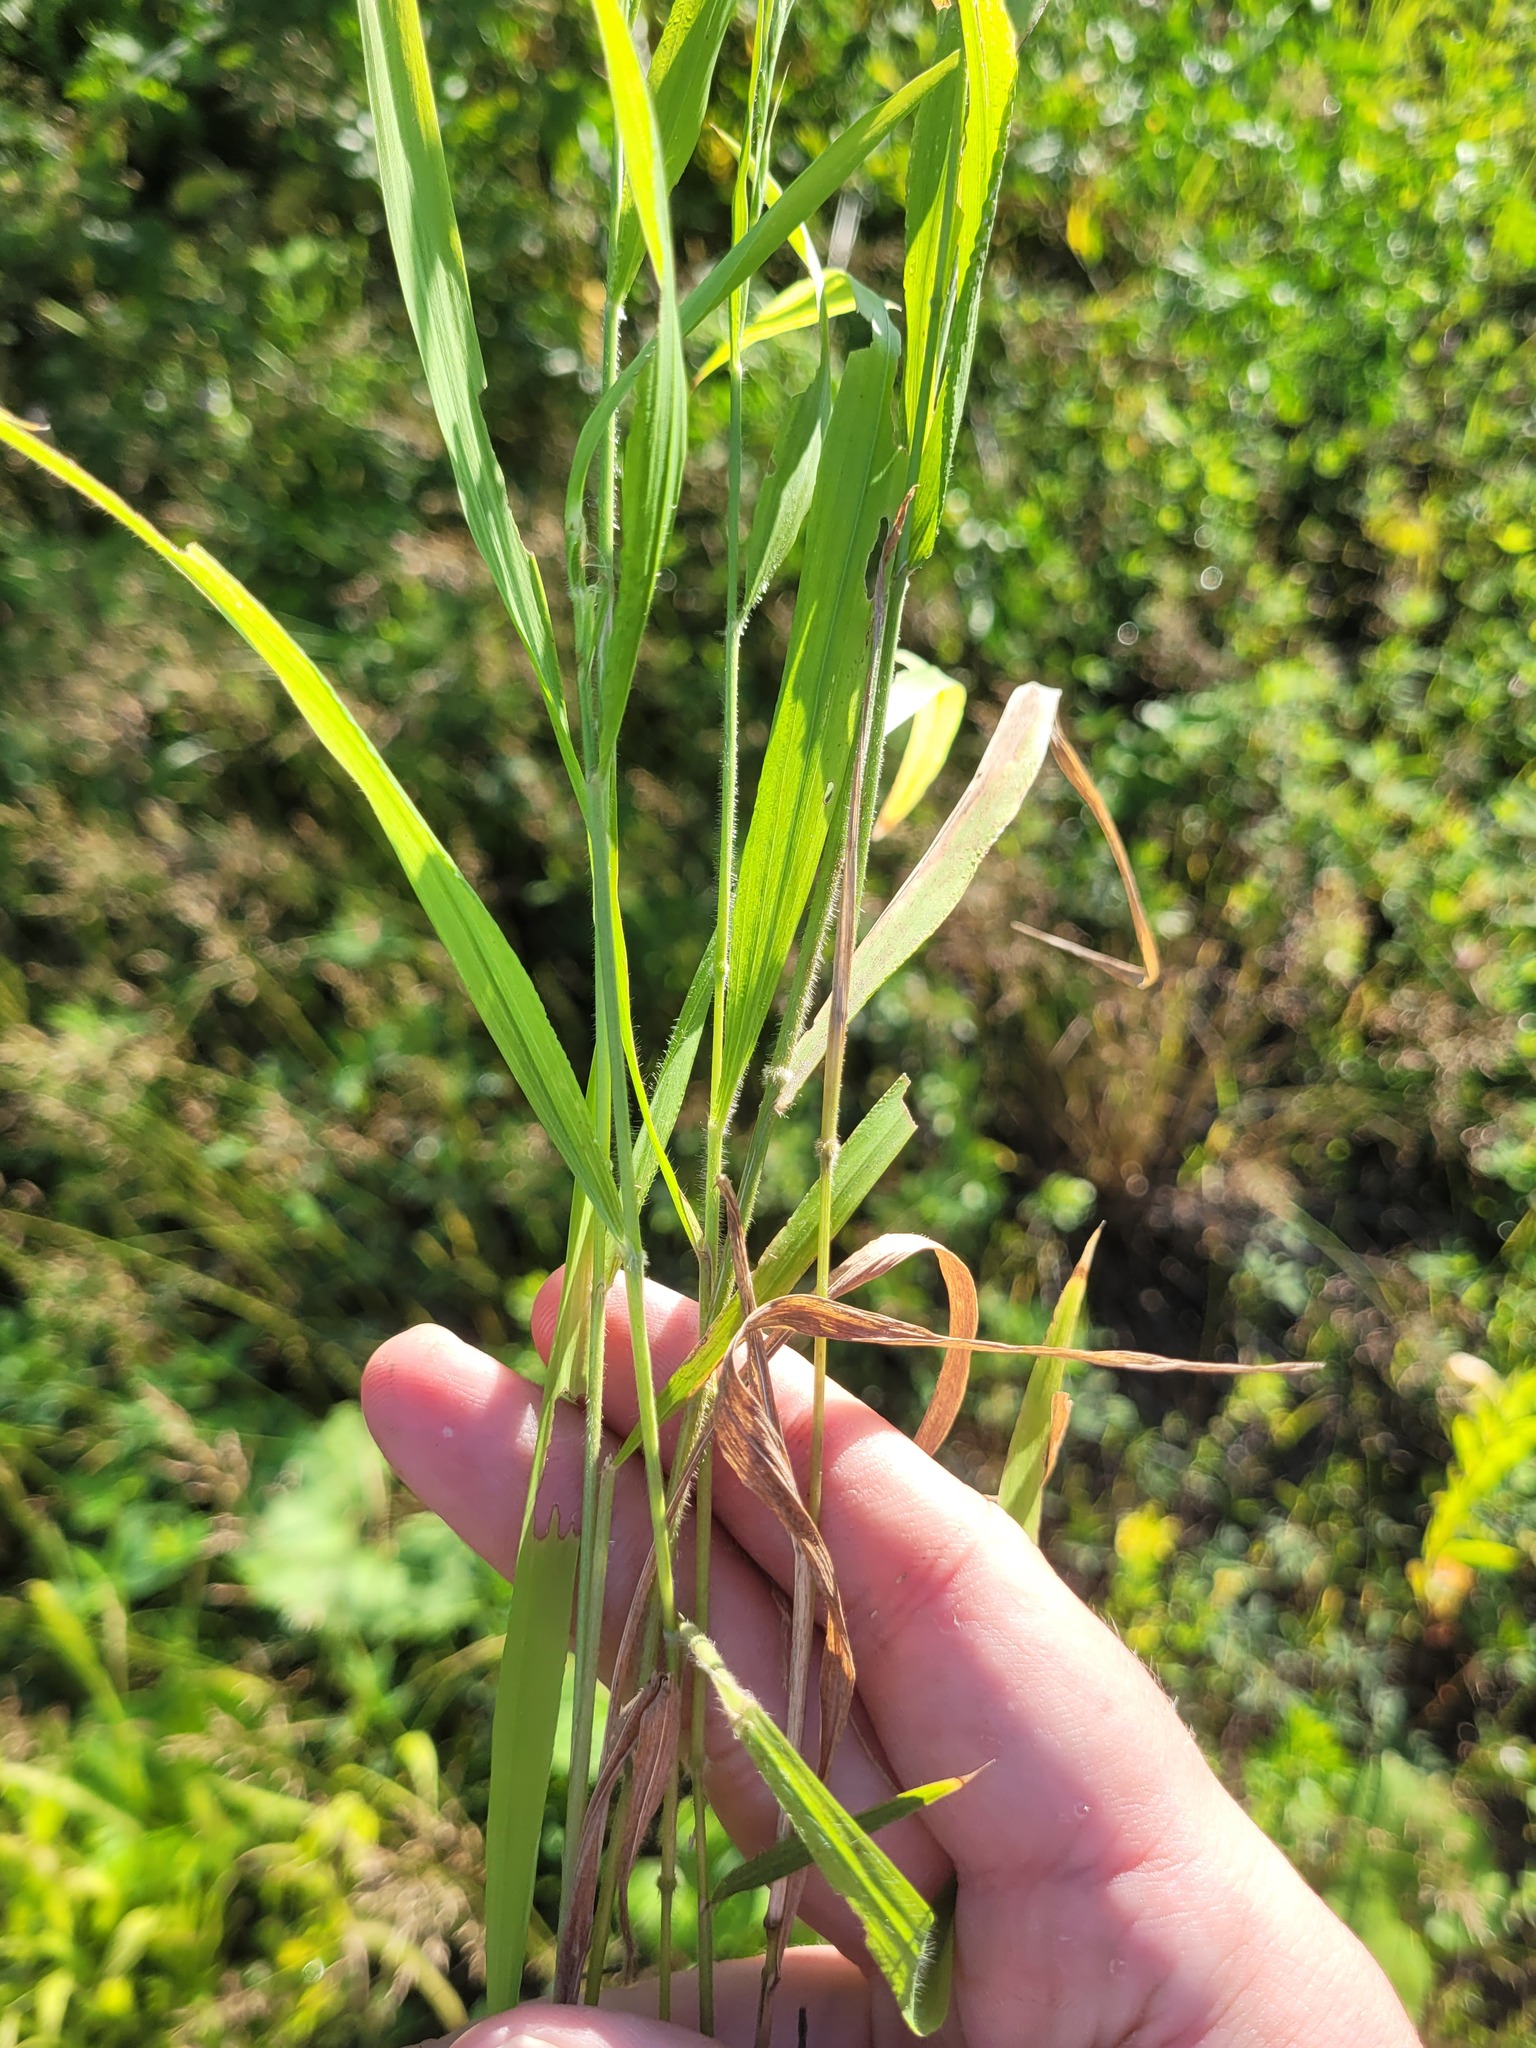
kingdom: Plantae
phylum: Tracheophyta
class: Liliopsida
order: Poales
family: Poaceae
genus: Brachypodium
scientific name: Brachypodium sylvaticum
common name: False-brome
